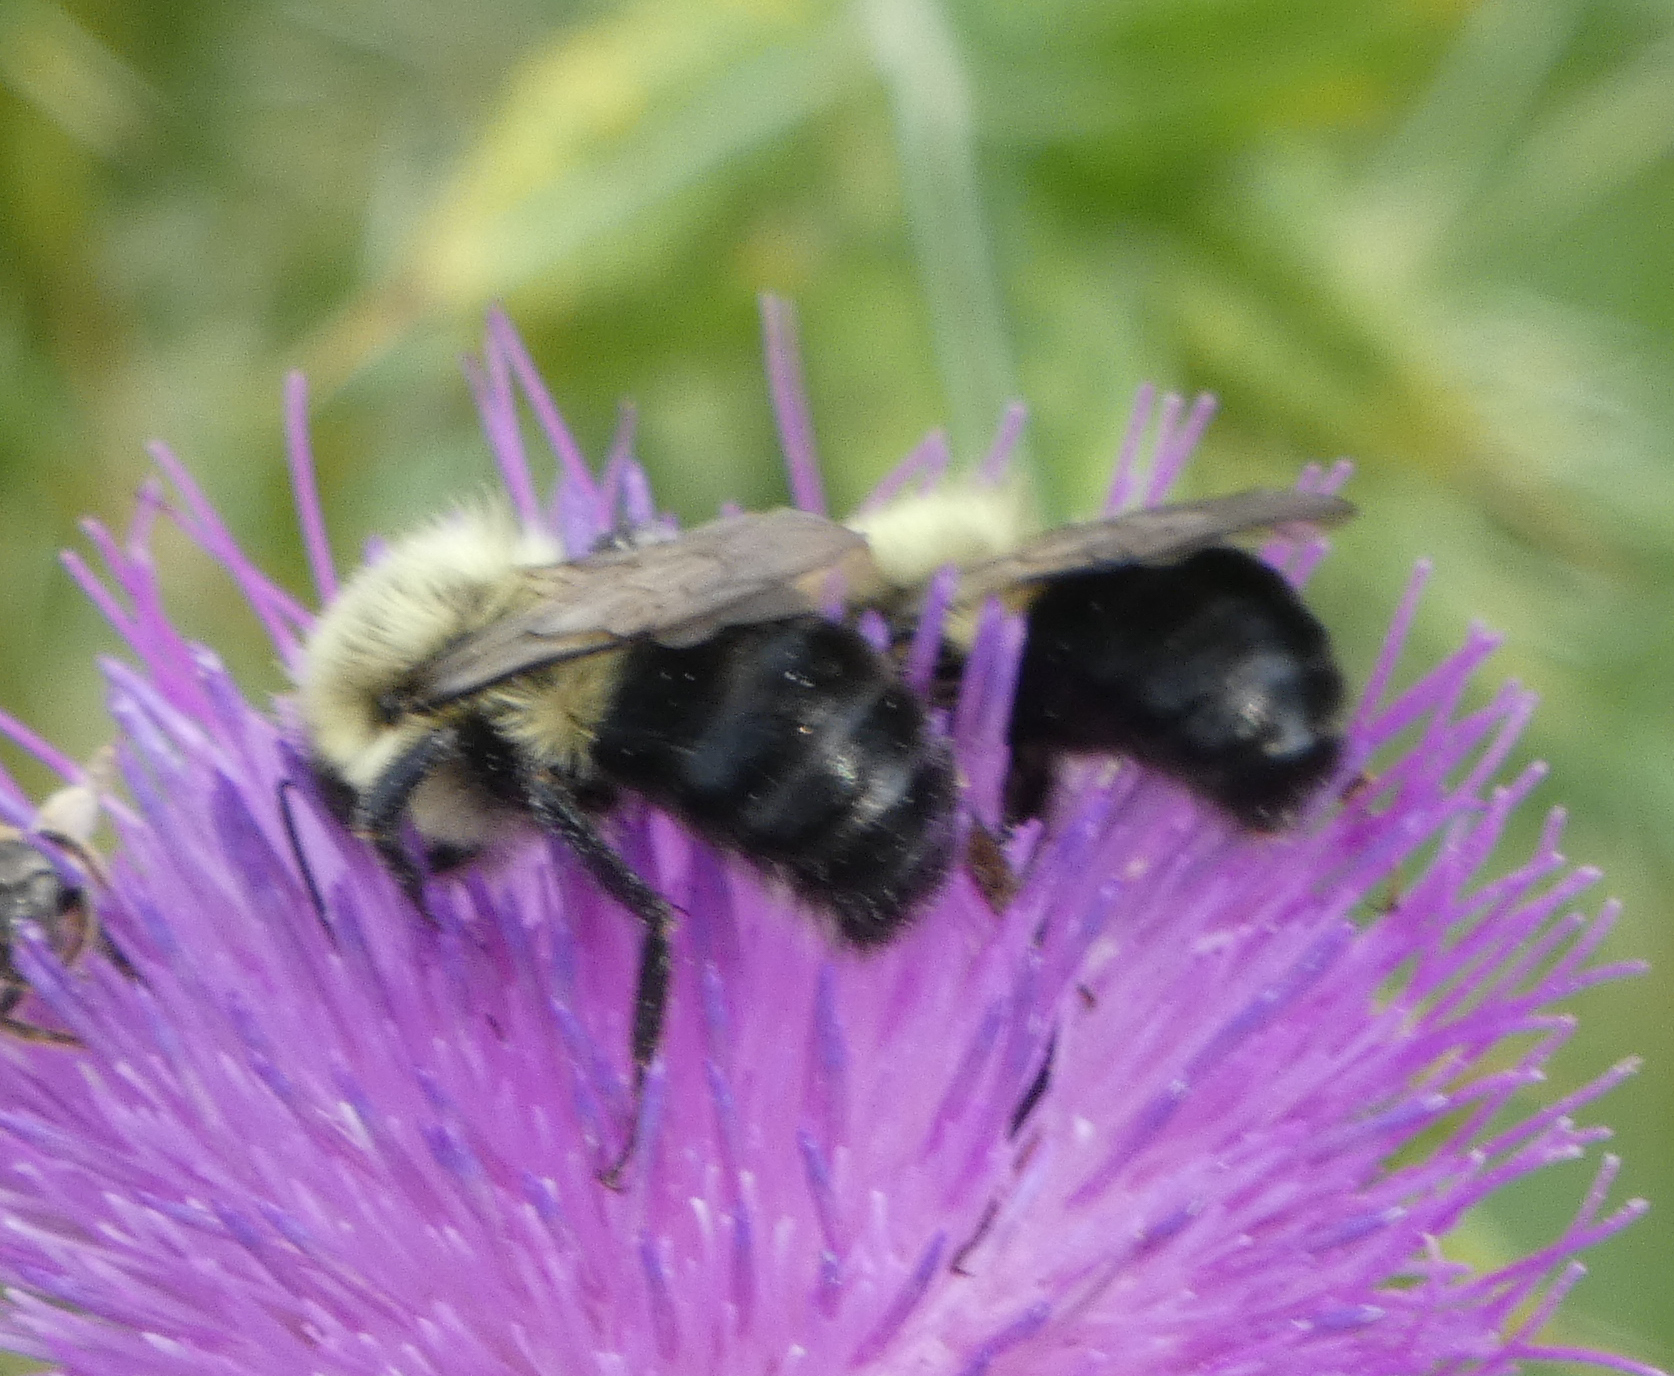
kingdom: Animalia
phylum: Arthropoda
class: Insecta
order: Hymenoptera
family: Apidae
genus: Bombus
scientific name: Bombus impatiens
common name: Common eastern bumble bee
